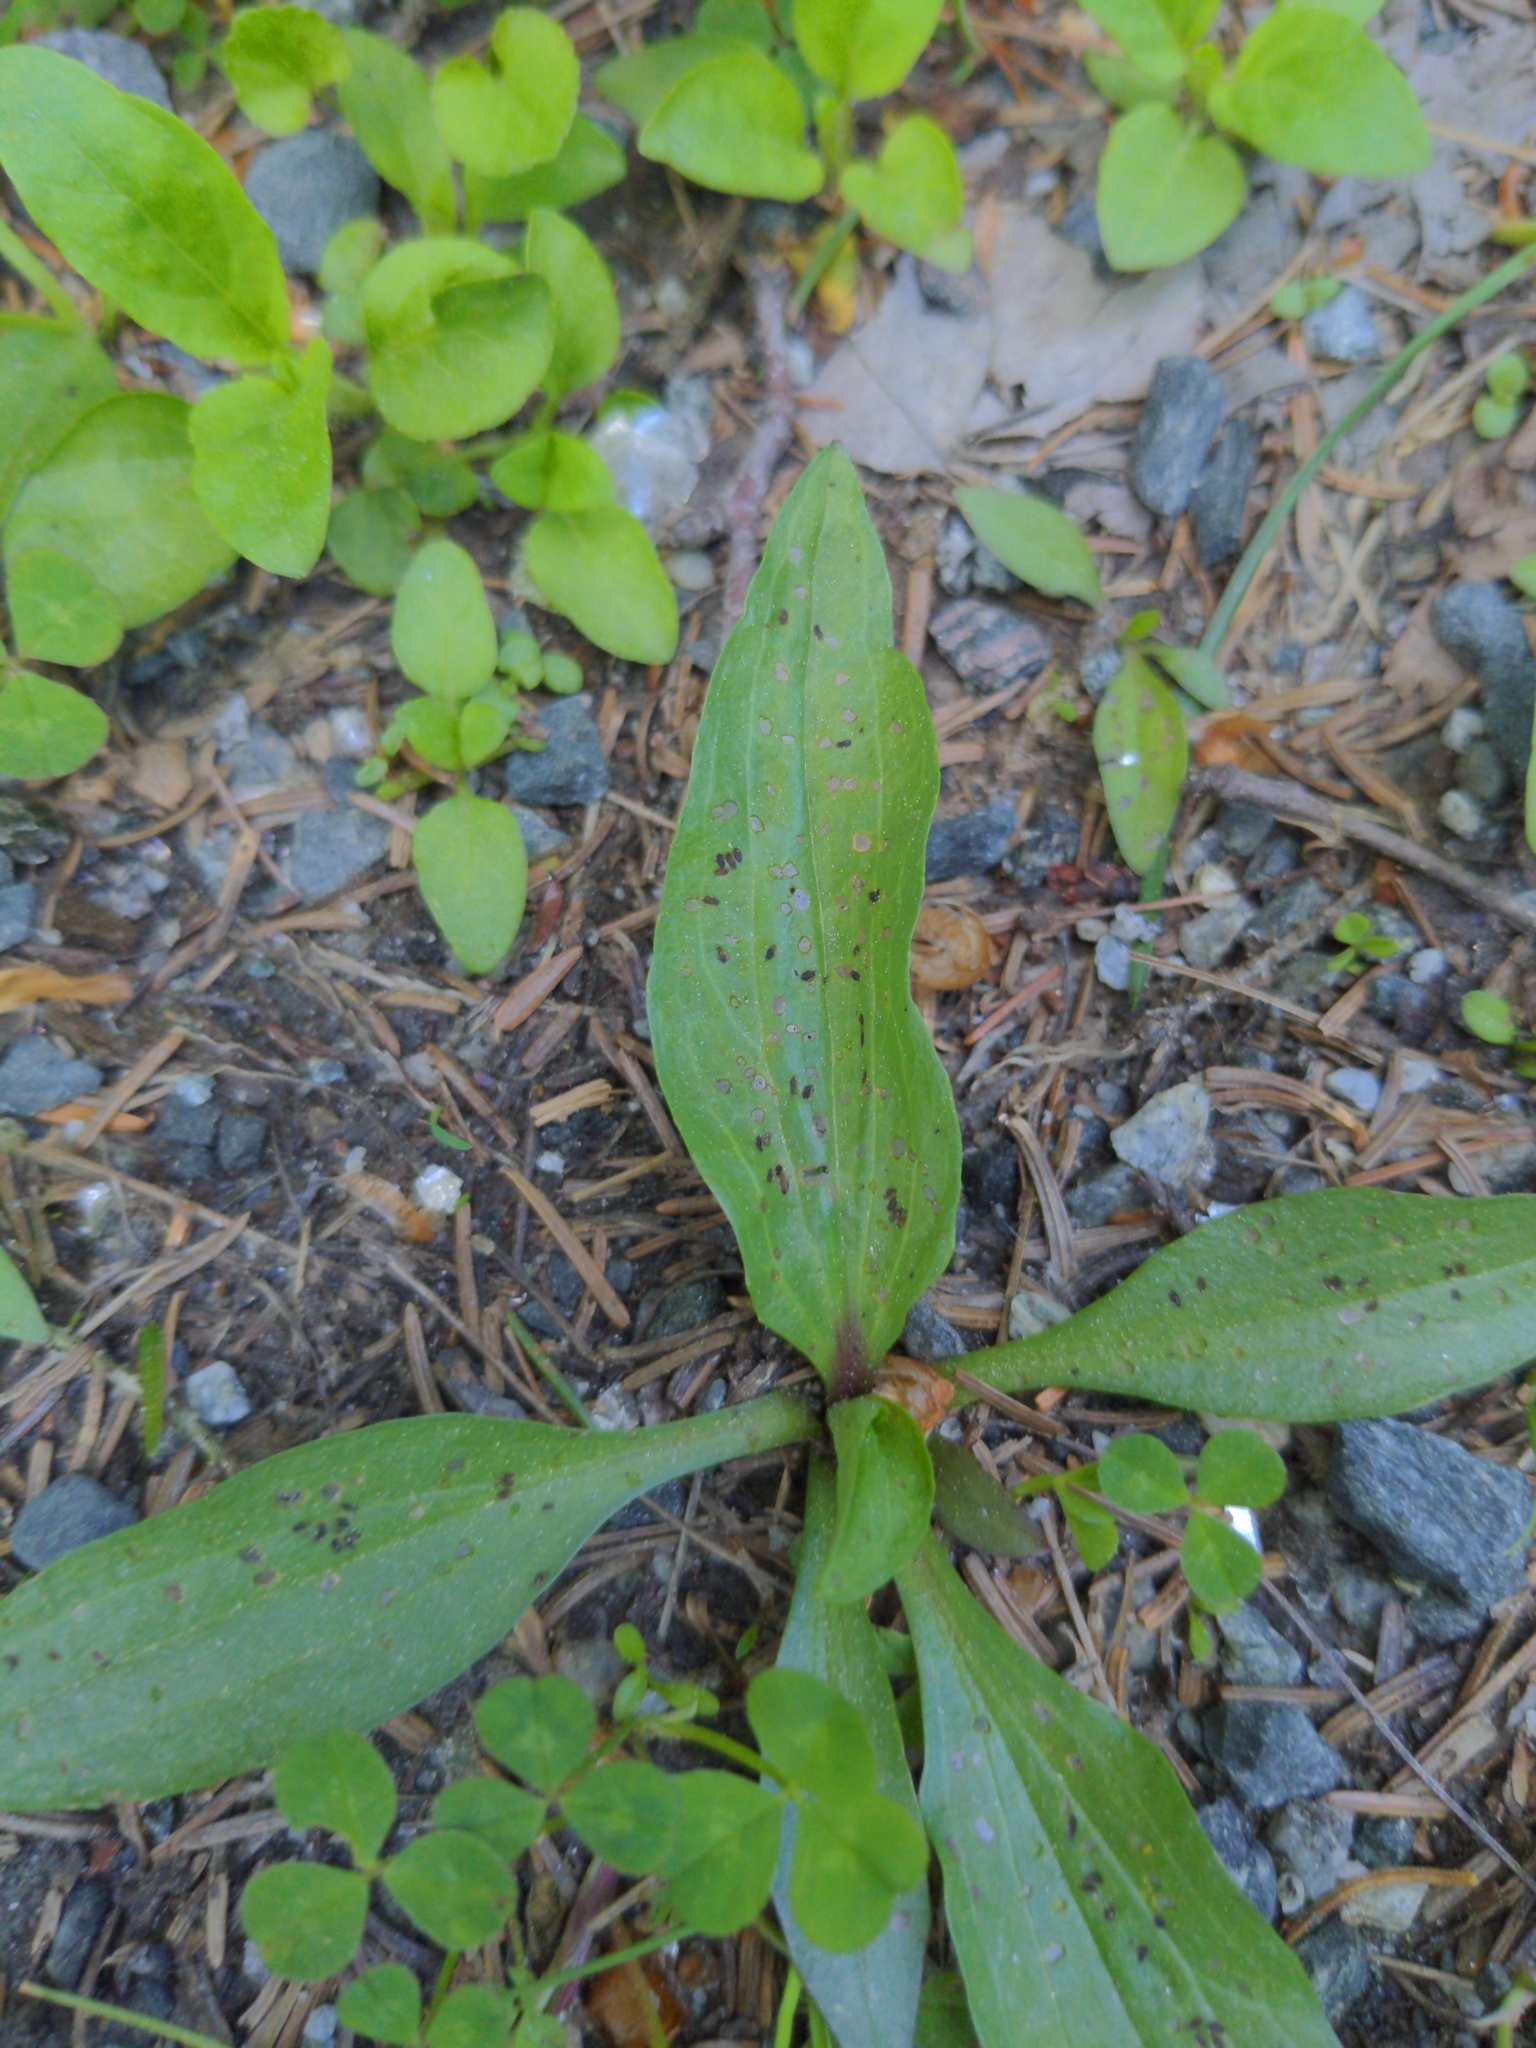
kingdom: Plantae
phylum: Tracheophyta
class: Magnoliopsida
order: Lamiales
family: Plantaginaceae
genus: Plantago
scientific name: Plantago rugelii
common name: American plantain
